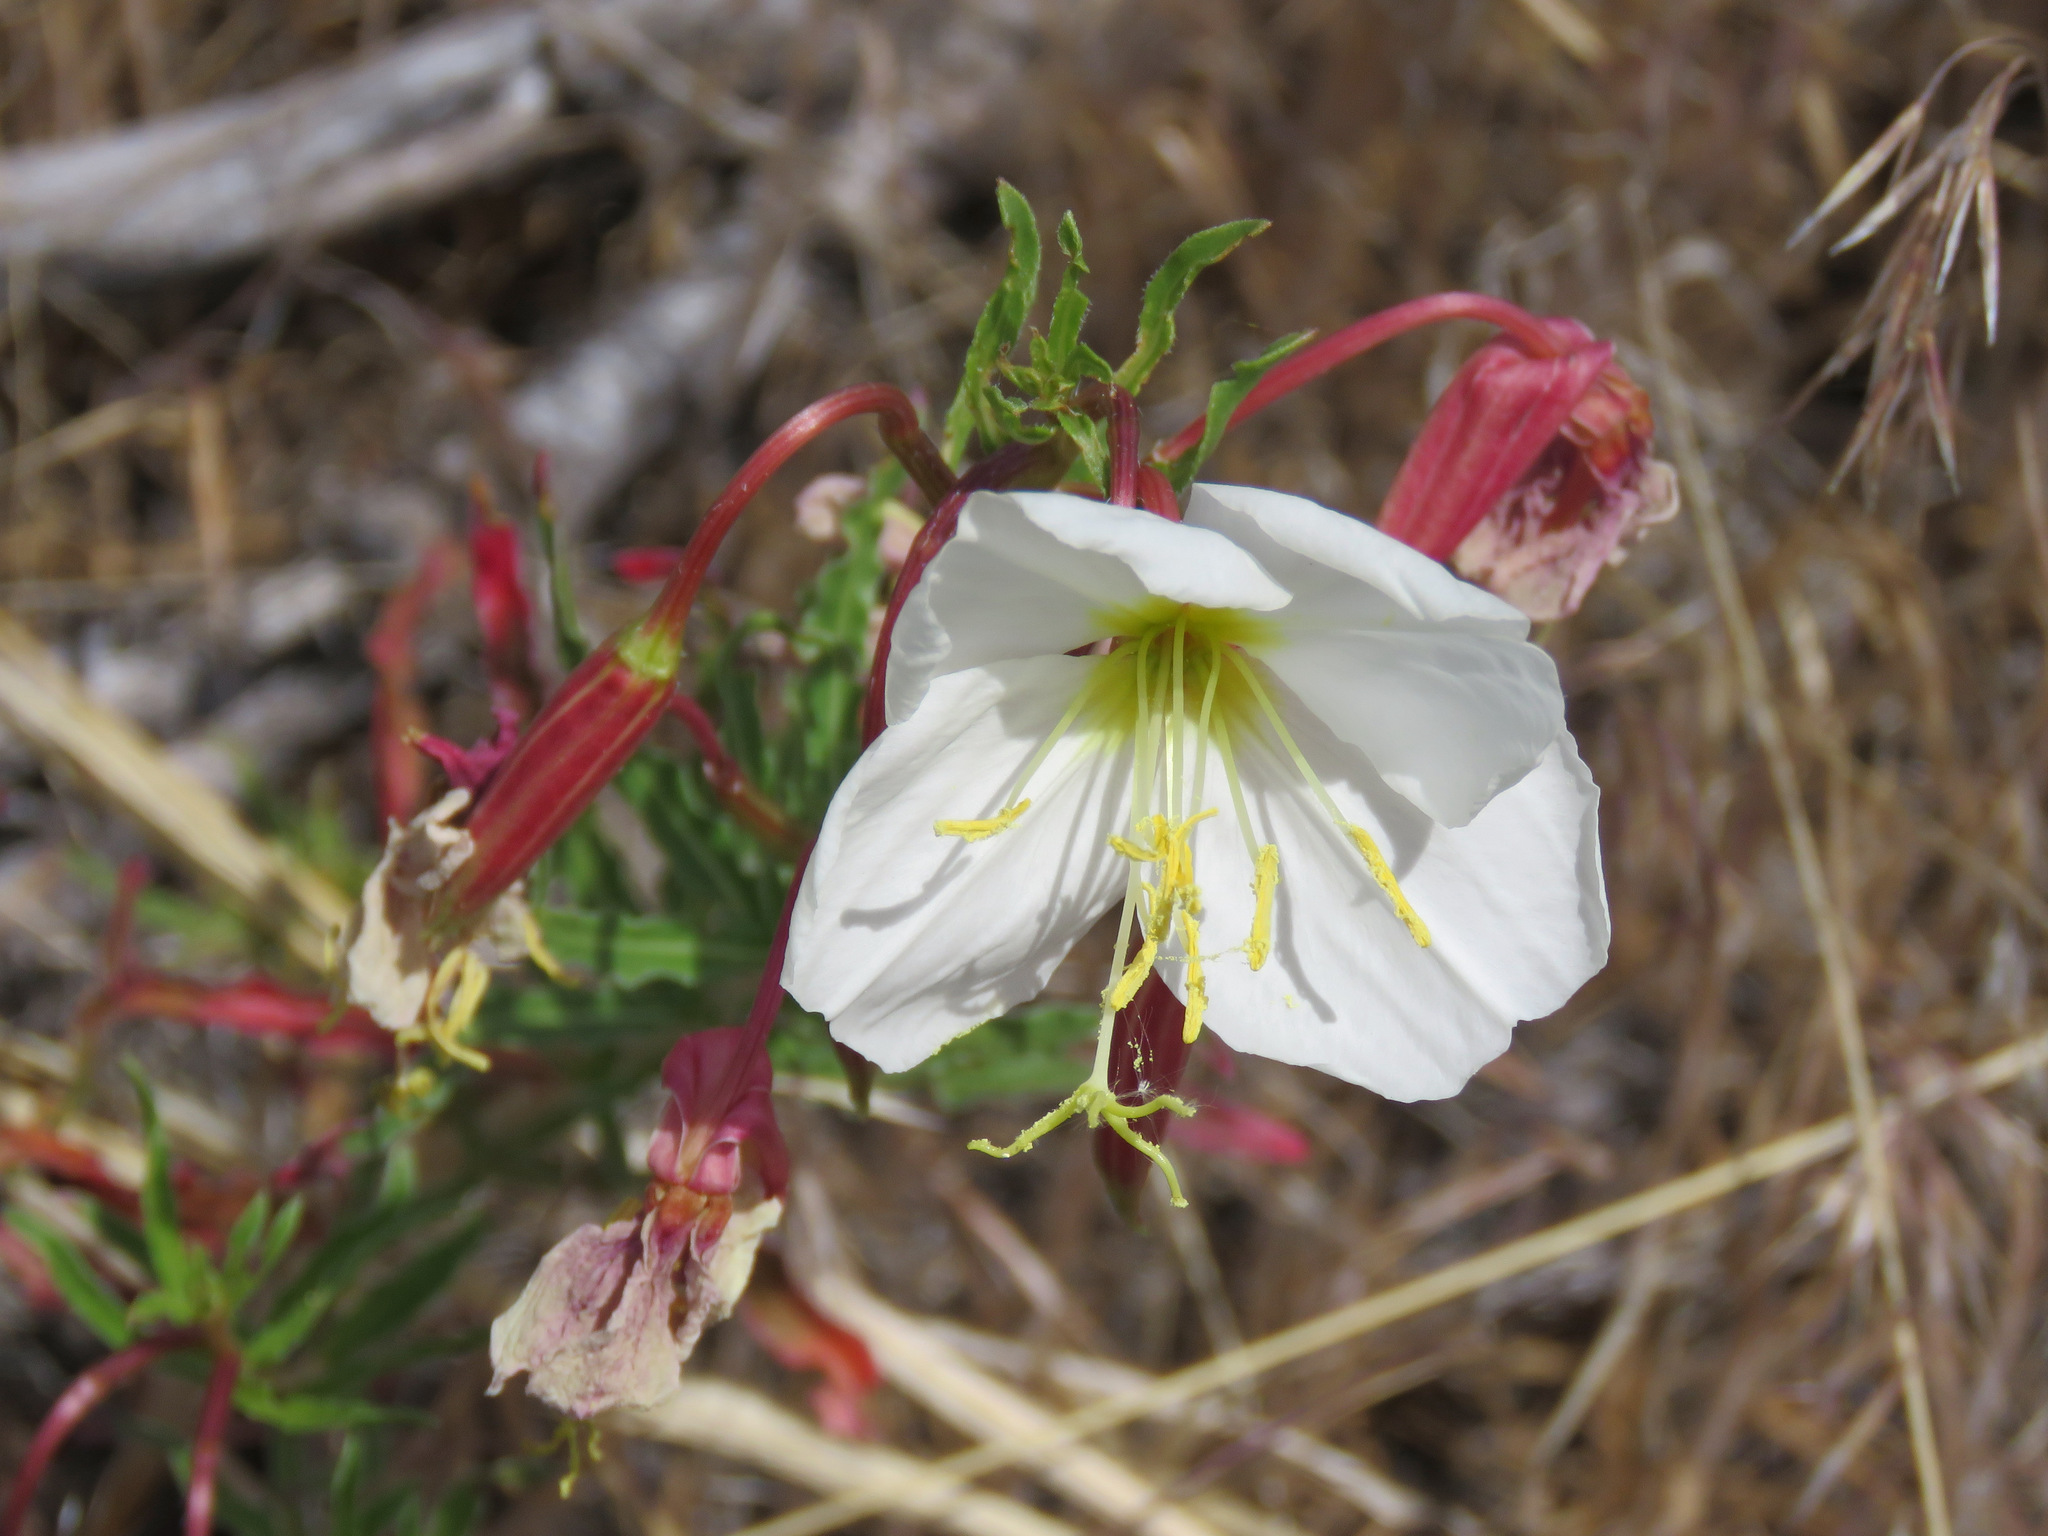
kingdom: Plantae
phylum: Tracheophyta
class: Magnoliopsida
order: Myrtales
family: Onagraceae
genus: Oenothera
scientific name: Oenothera pallida
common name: Pale evening-primrose
